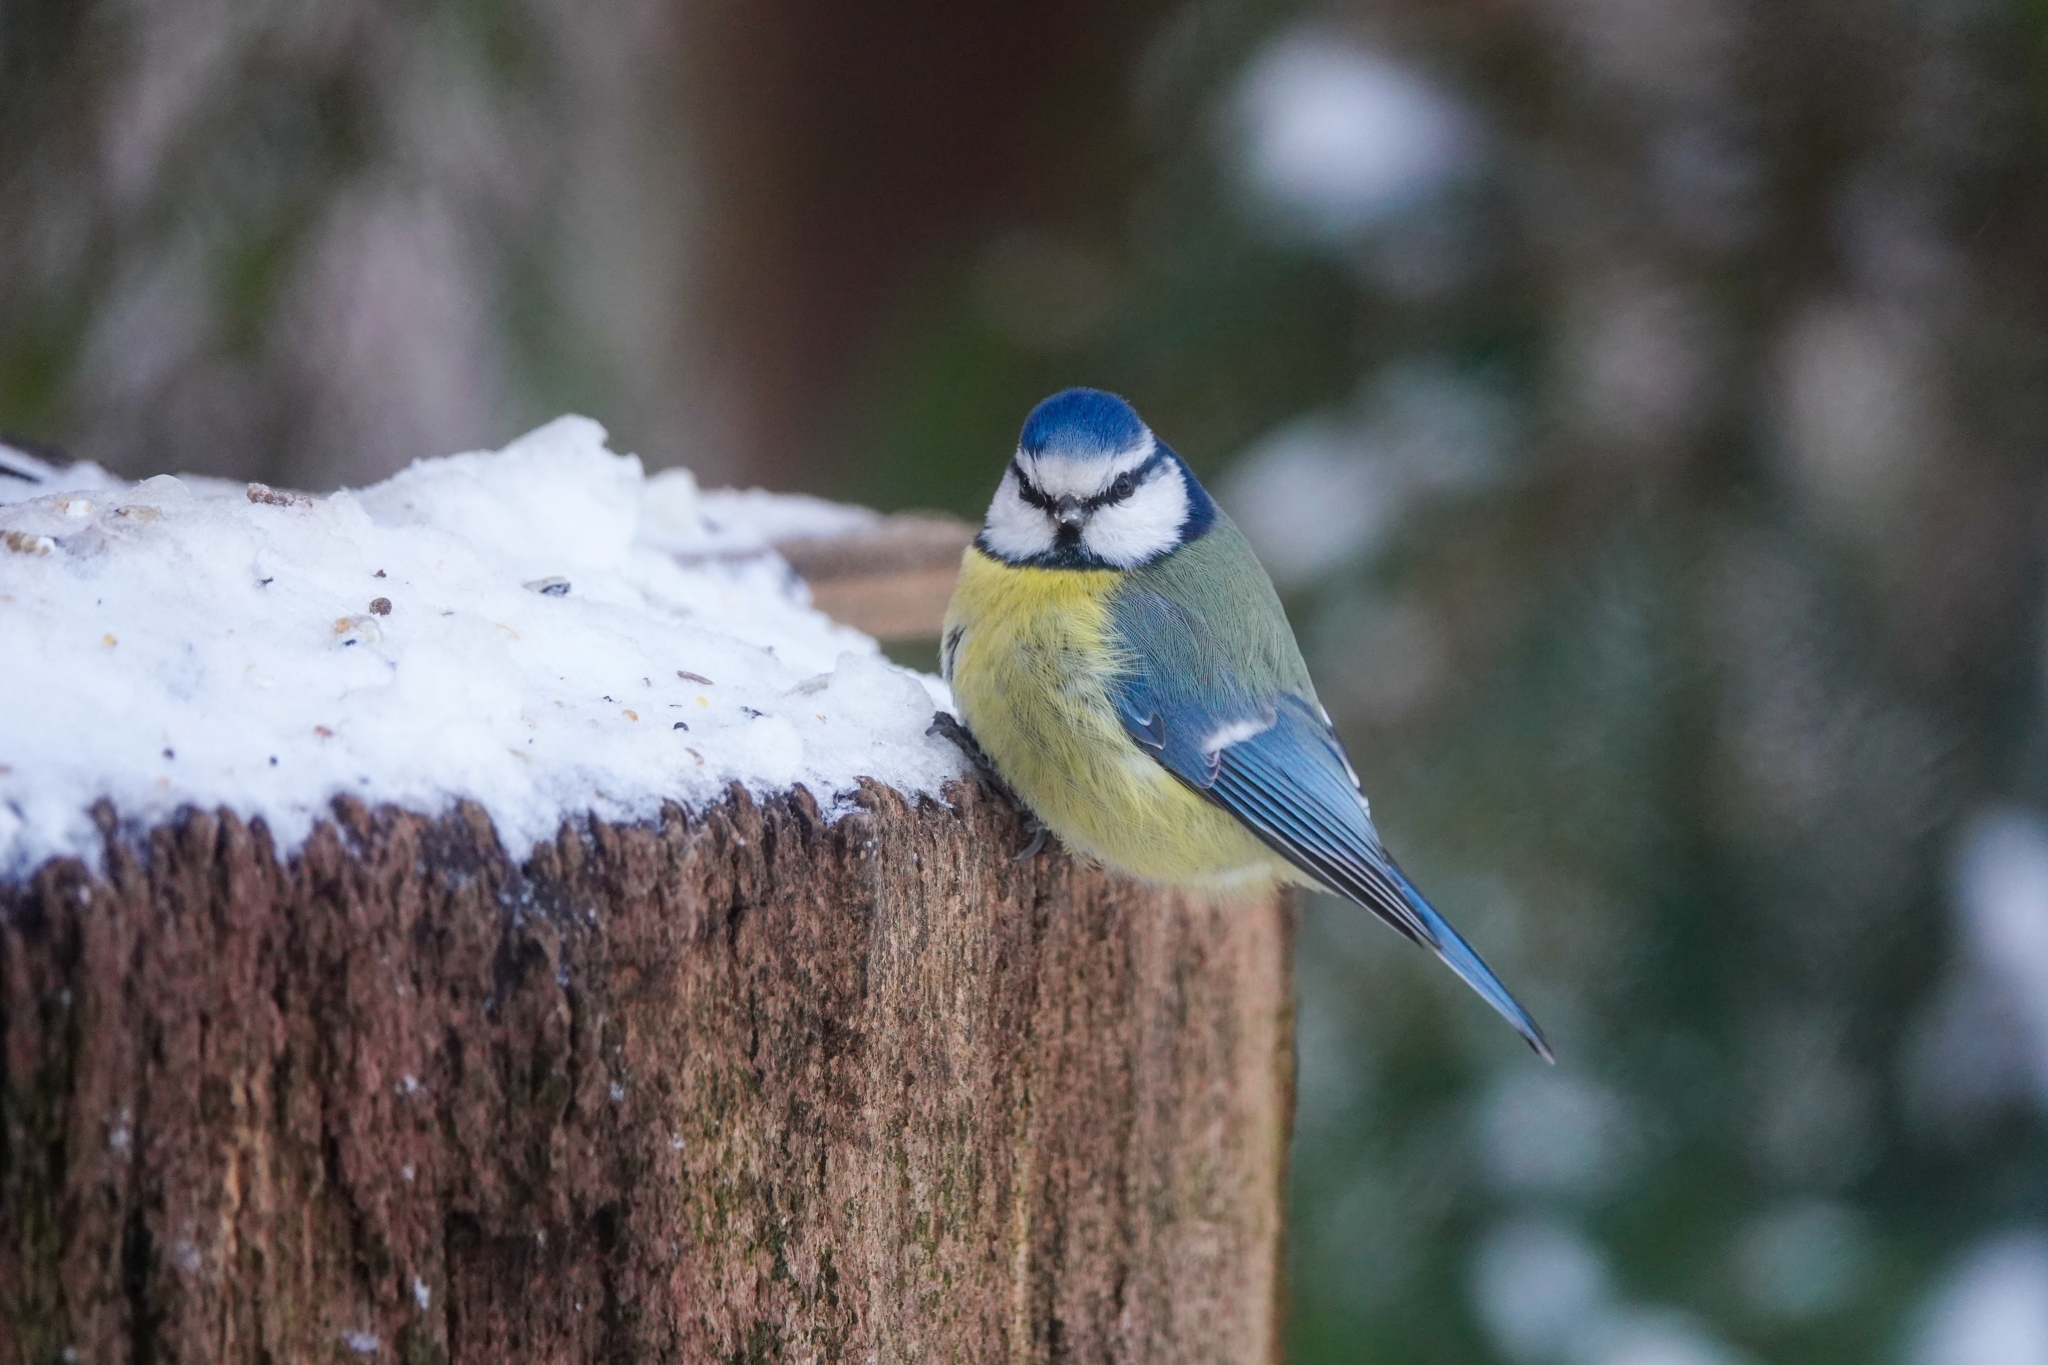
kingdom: Animalia
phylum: Chordata
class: Aves
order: Passeriformes
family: Paridae
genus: Cyanistes
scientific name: Cyanistes caeruleus
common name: Eurasian blue tit
